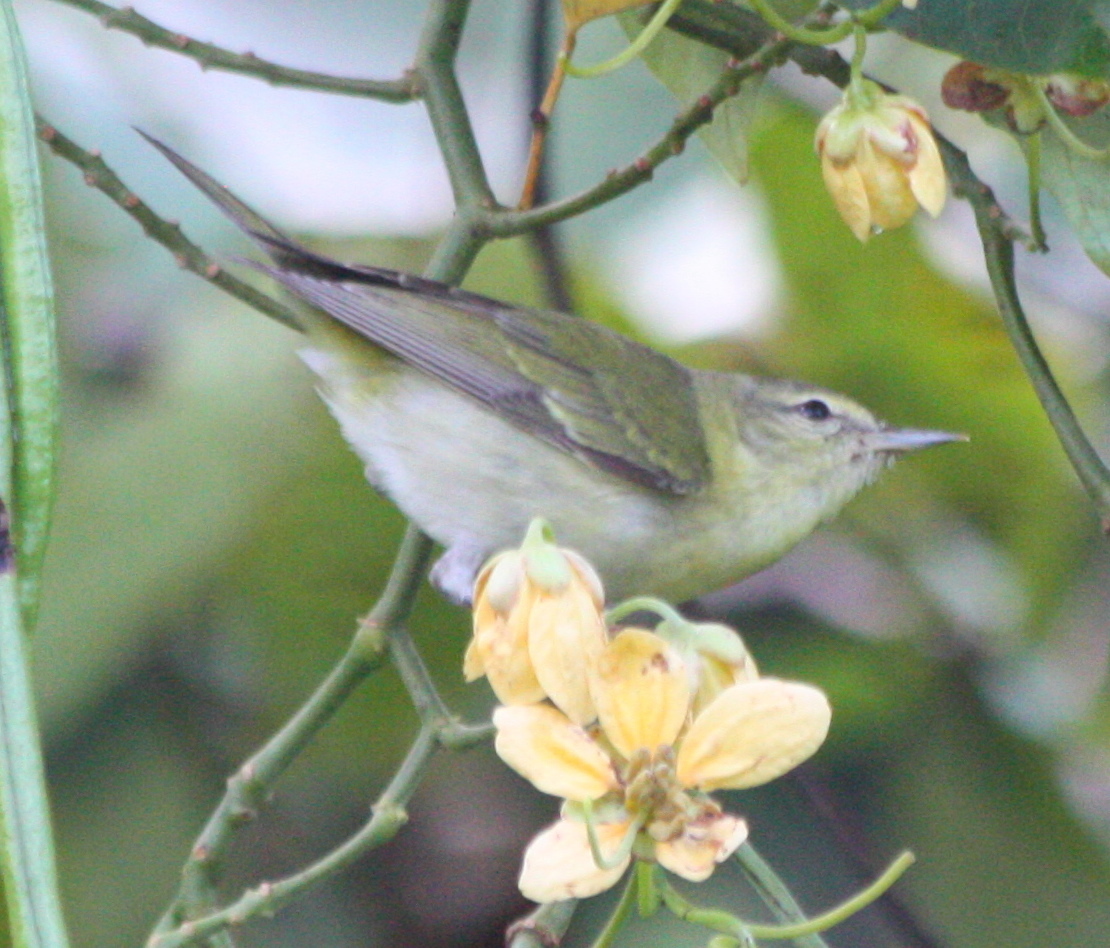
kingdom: Animalia
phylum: Chordata
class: Aves
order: Passeriformes
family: Parulidae
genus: Leiothlypis
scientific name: Leiothlypis peregrina
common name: Tennessee warbler
